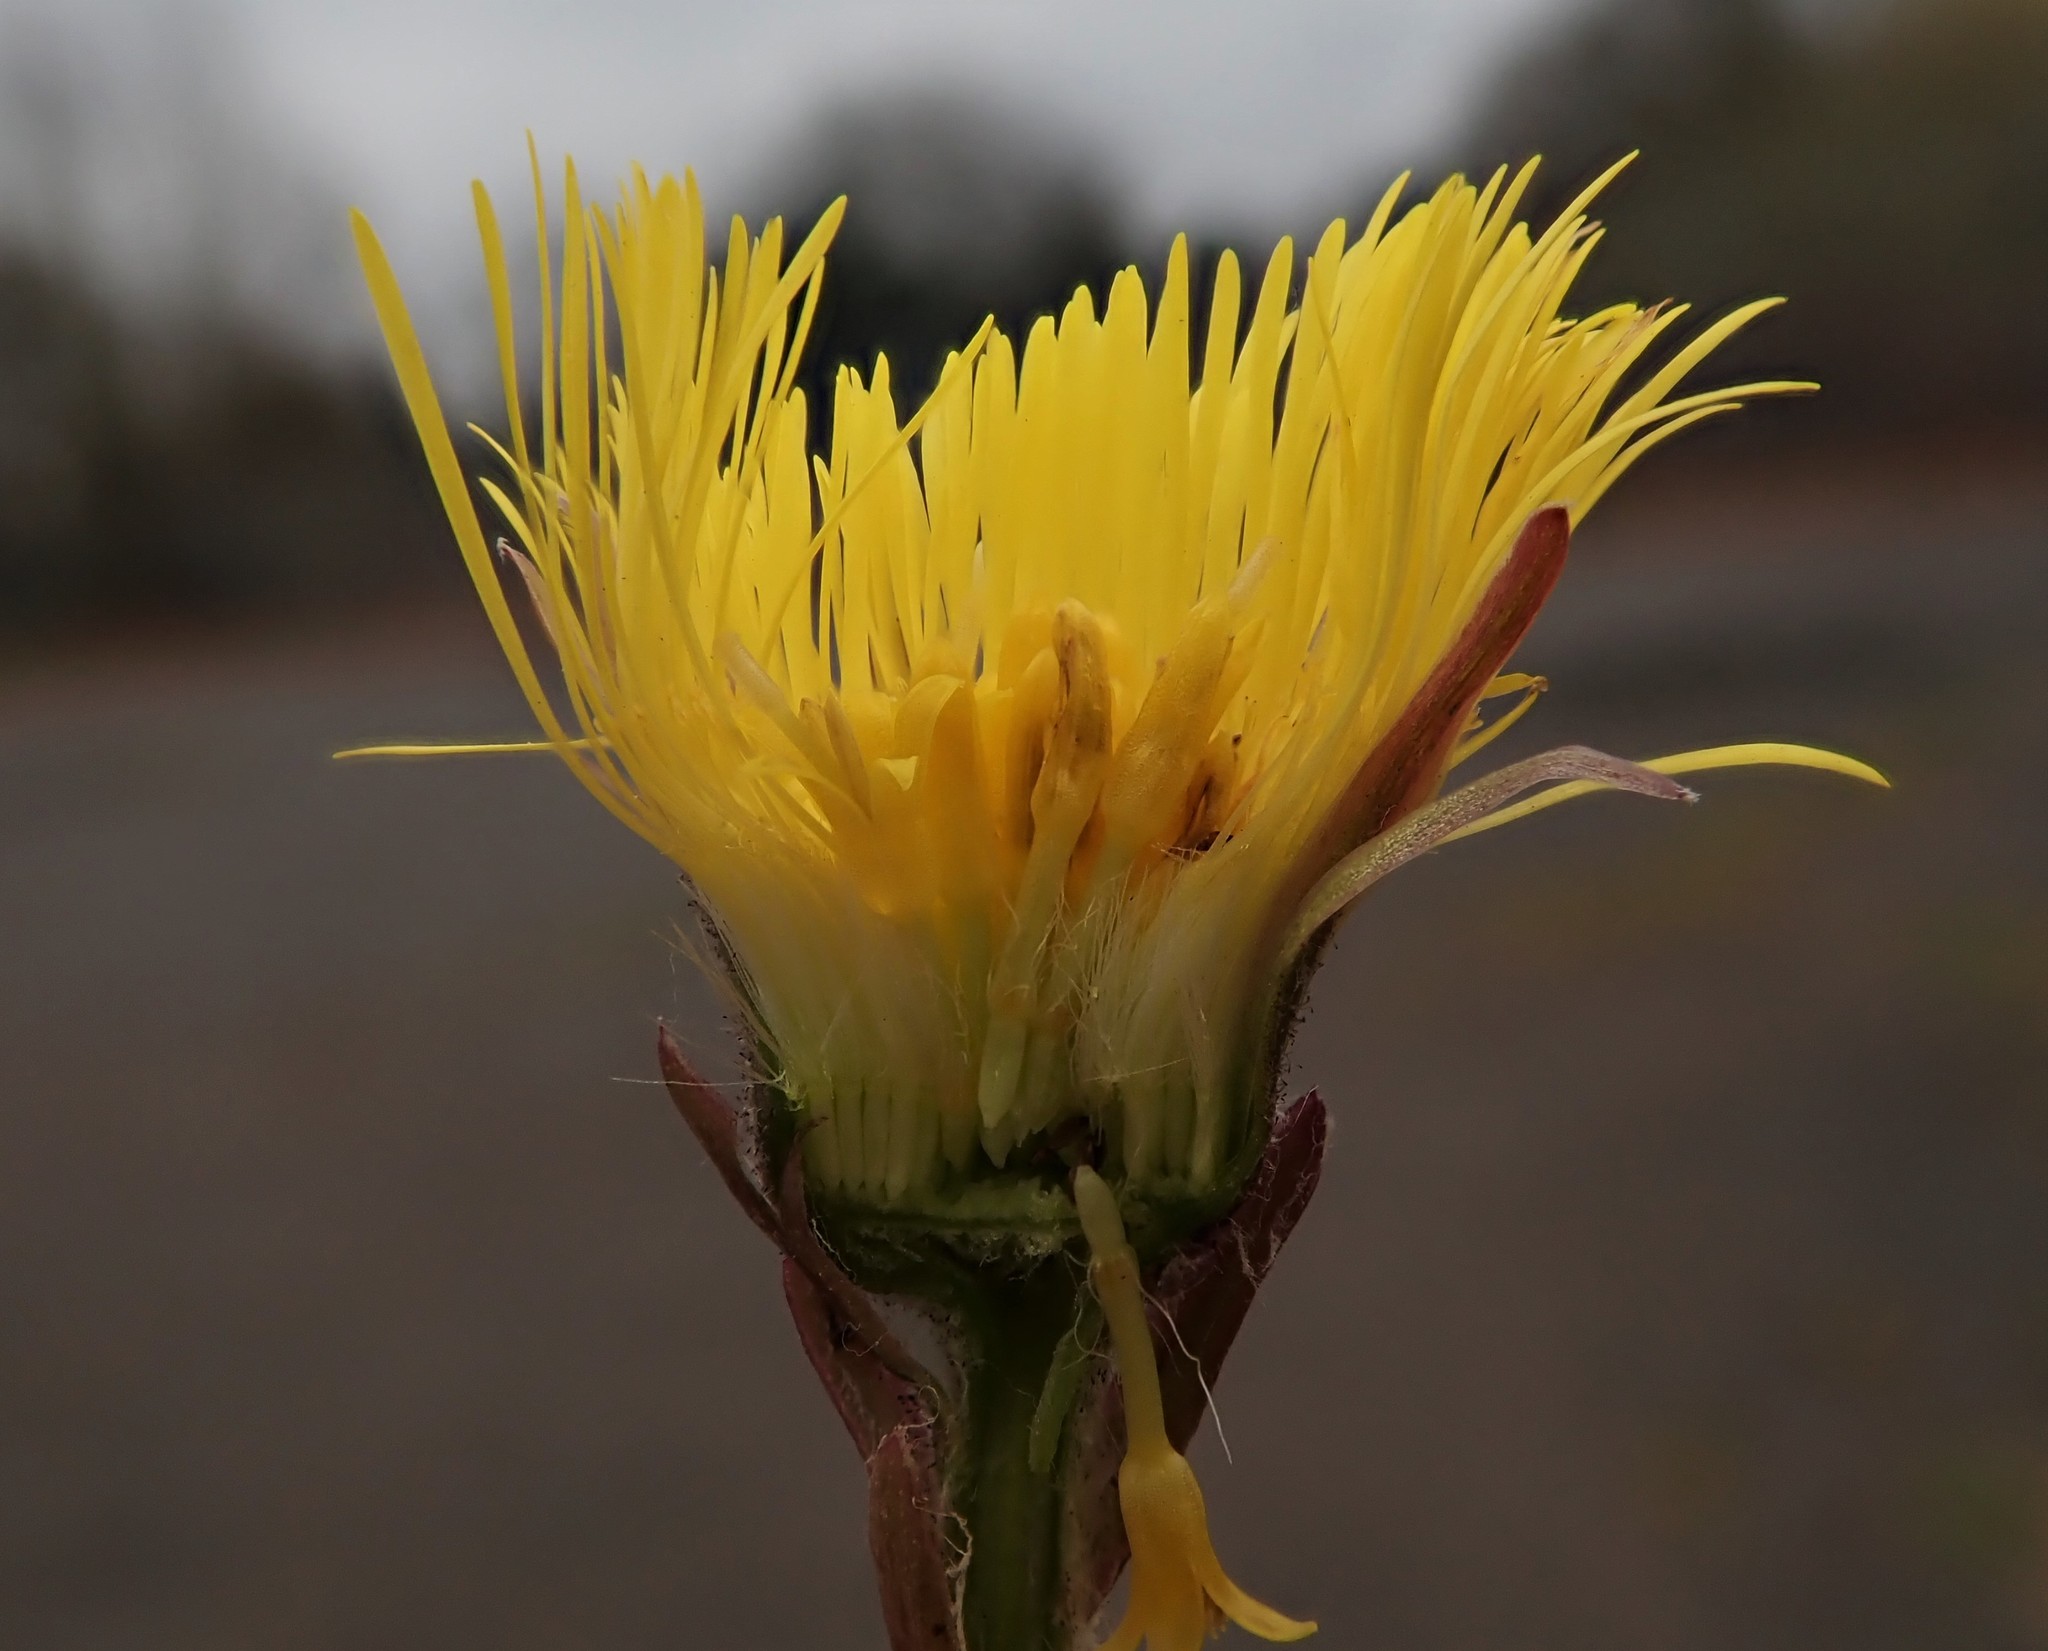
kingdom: Plantae
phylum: Tracheophyta
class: Magnoliopsida
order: Asterales
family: Asteraceae
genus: Tussilago
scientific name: Tussilago farfara
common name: Coltsfoot
